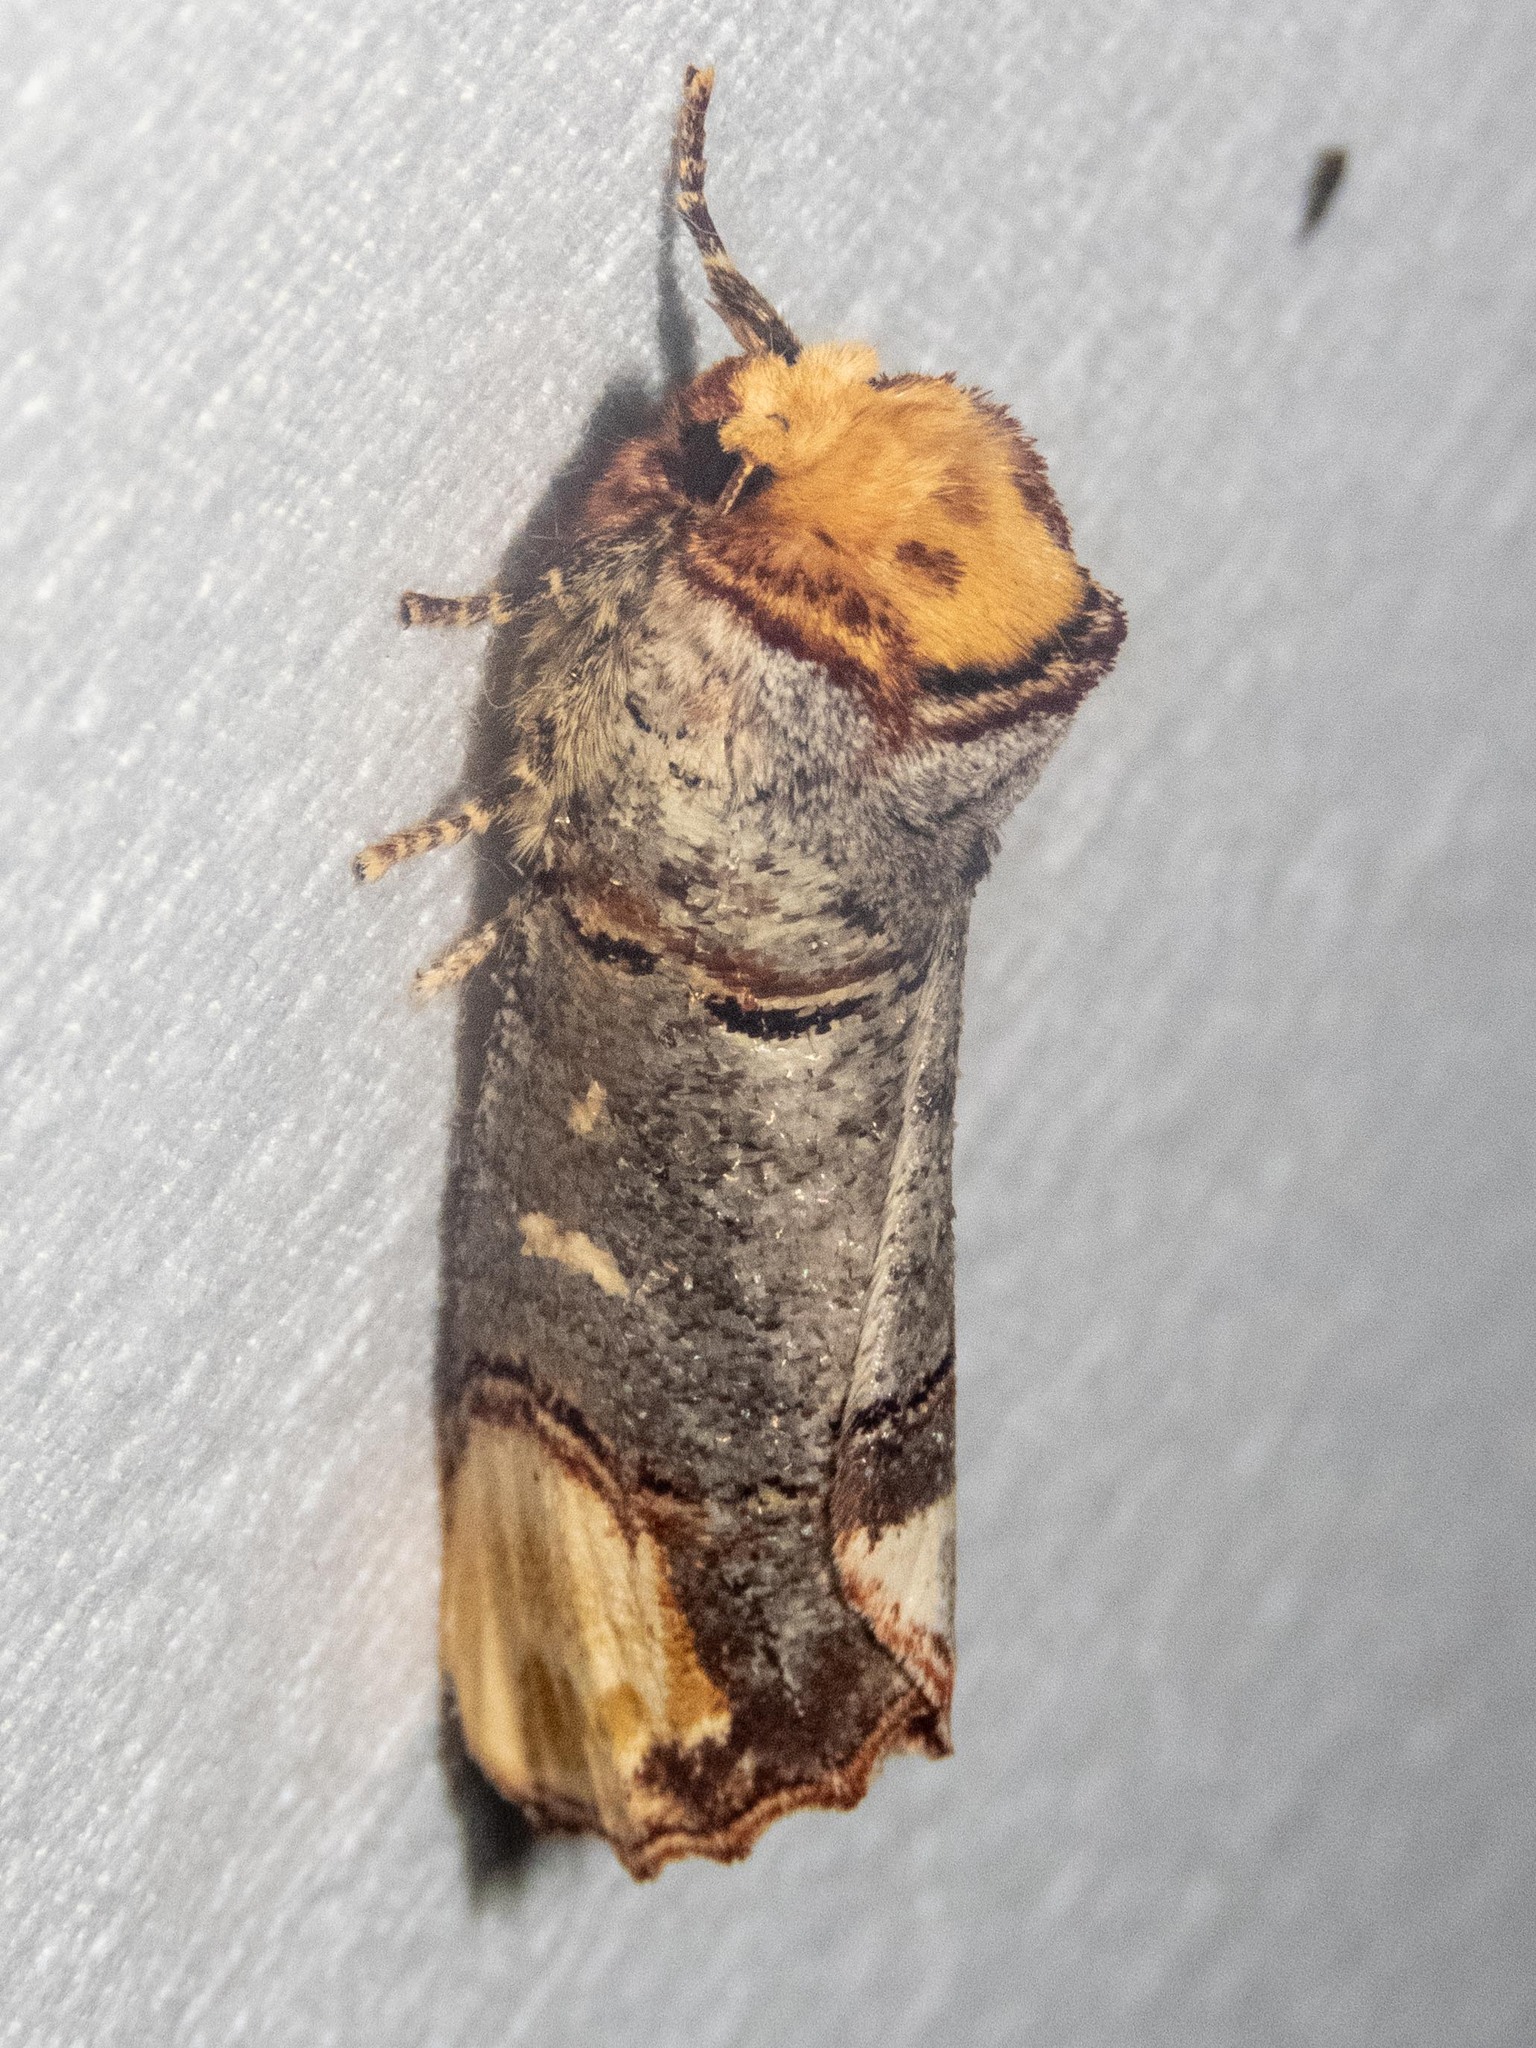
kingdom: Animalia
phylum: Arthropoda
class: Insecta
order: Lepidoptera
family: Notodontidae
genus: Phalera
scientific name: Phalera bucephala
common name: Buff-tip
